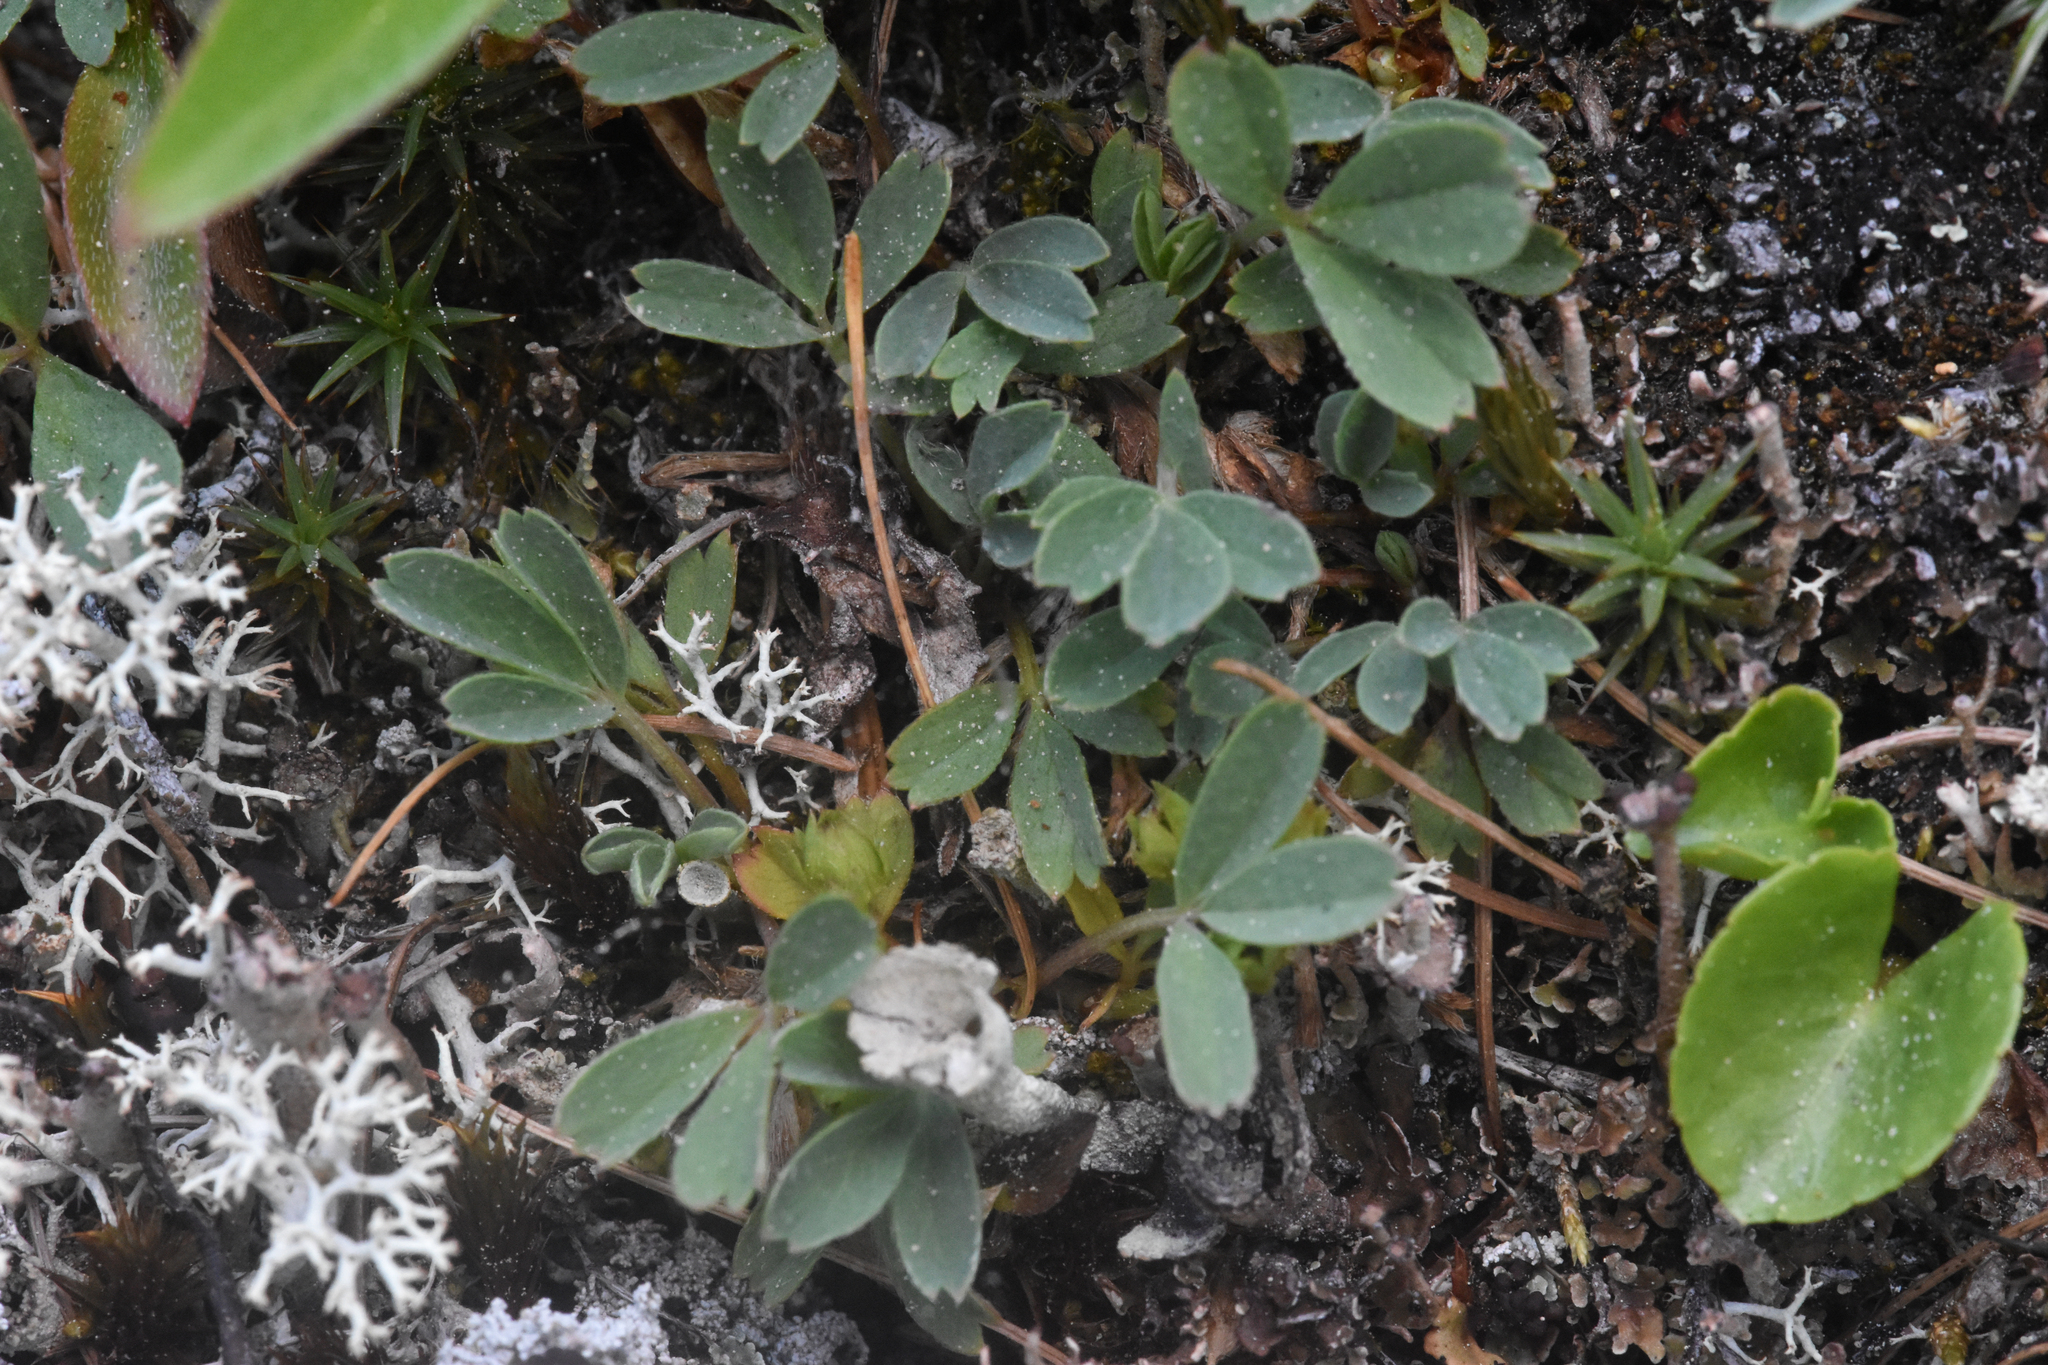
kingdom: Plantae
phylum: Tracheophyta
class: Magnoliopsida
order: Rosales
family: Rosaceae
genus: Sibbaldia
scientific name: Sibbaldia procumbens
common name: Creeping sibbaldia
